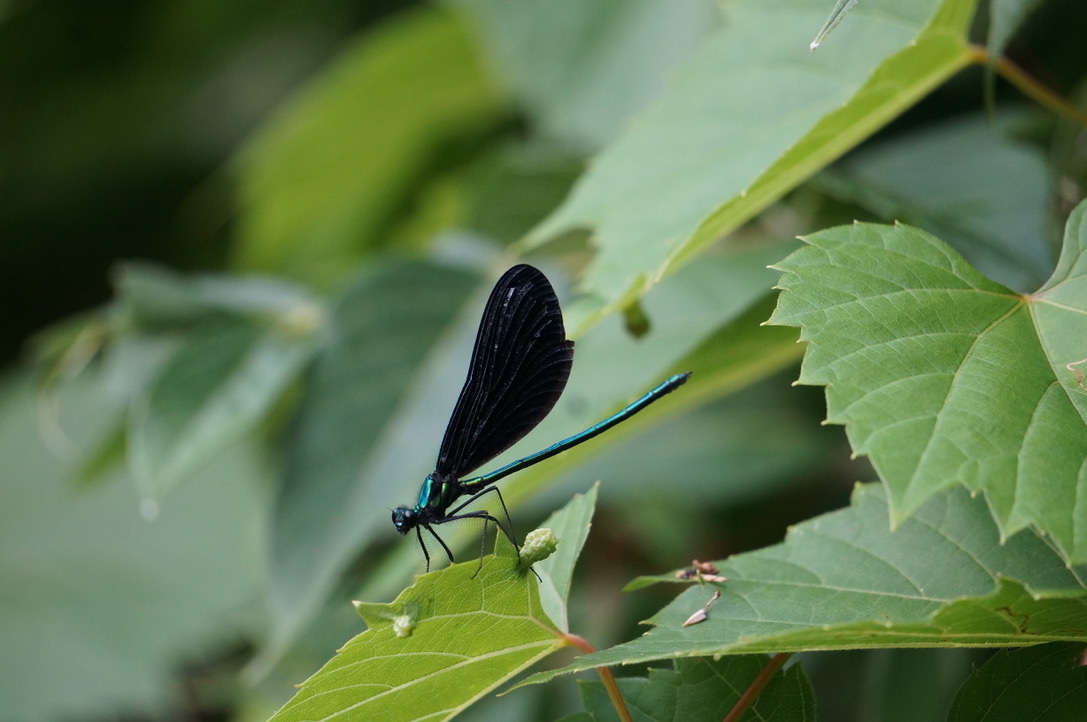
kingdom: Animalia
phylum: Arthropoda
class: Insecta
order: Odonata
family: Calopterygidae
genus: Calopteryx
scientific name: Calopteryx maculata
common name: Ebony jewelwing
